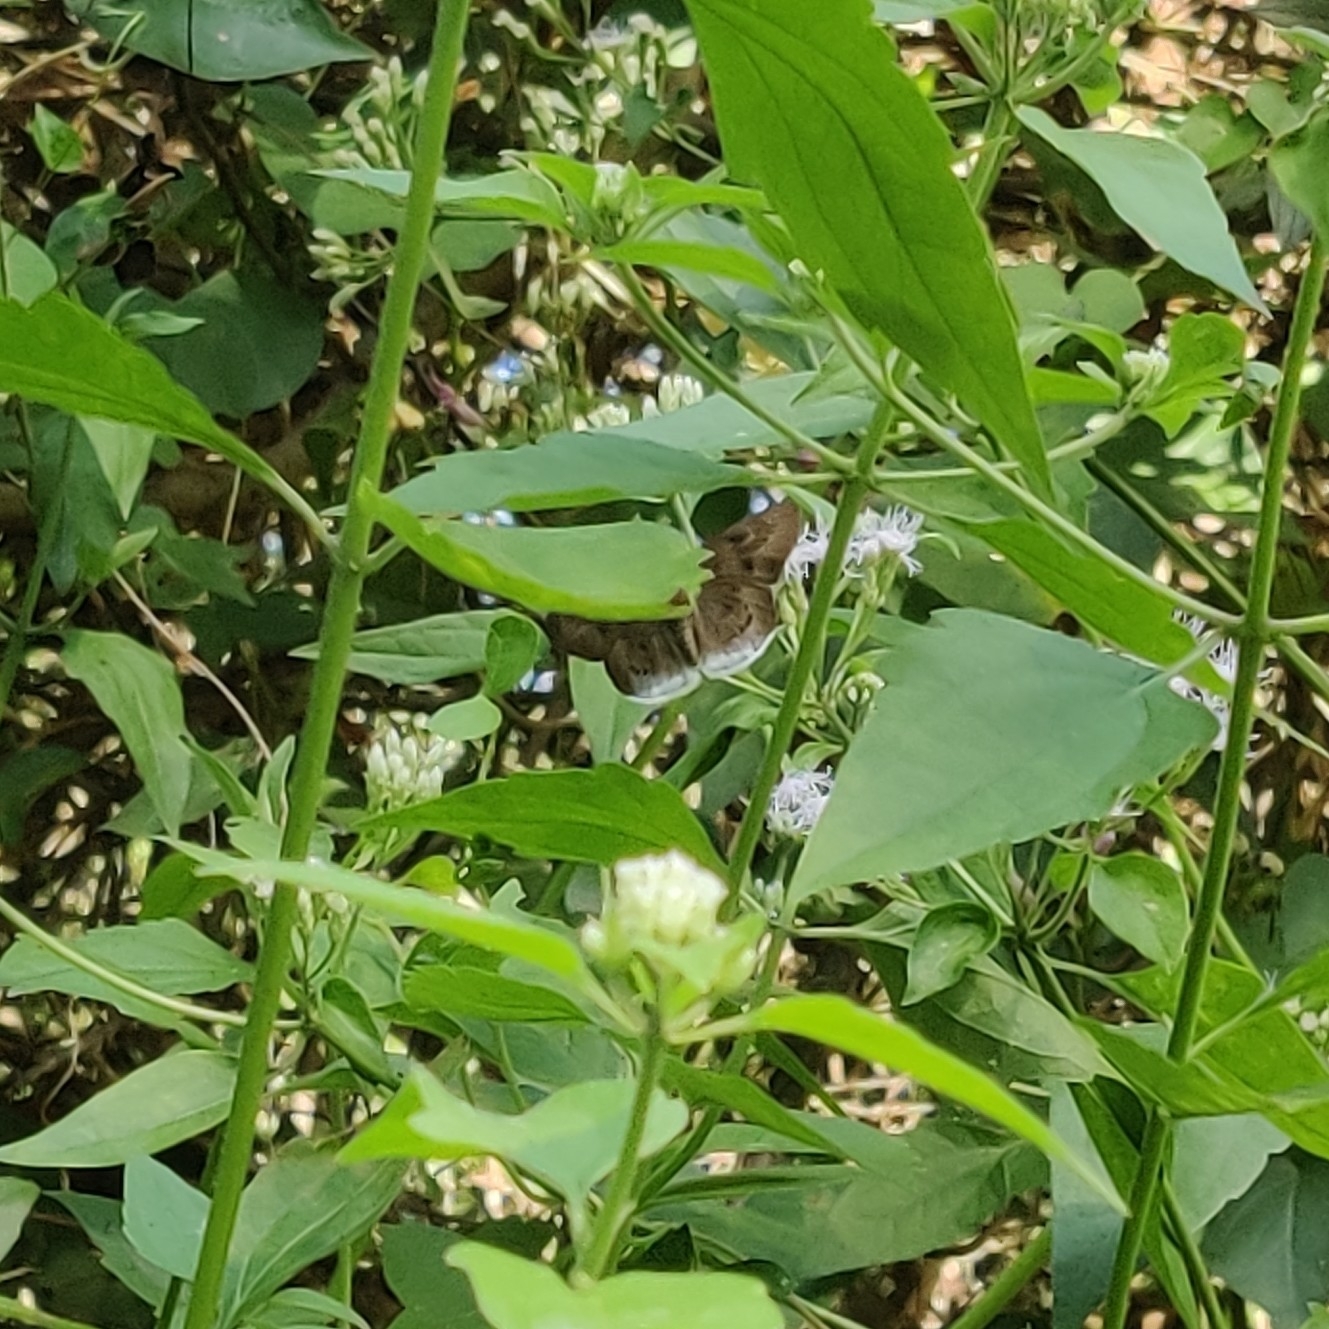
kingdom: Animalia
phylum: Arthropoda
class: Insecta
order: Lepidoptera
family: Hesperiidae
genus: Tagiades
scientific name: Tagiades japetus
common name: Pied flat
